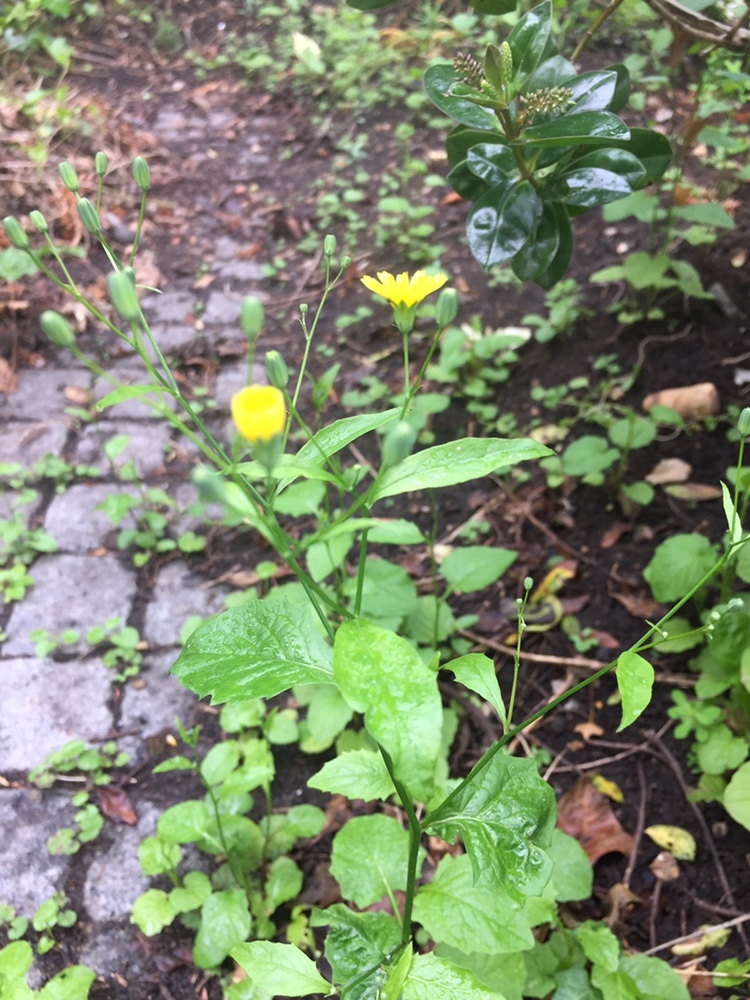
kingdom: Plantae
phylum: Tracheophyta
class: Magnoliopsida
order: Asterales
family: Asteraceae
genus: Lapsana
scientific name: Lapsana communis
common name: Nipplewort
